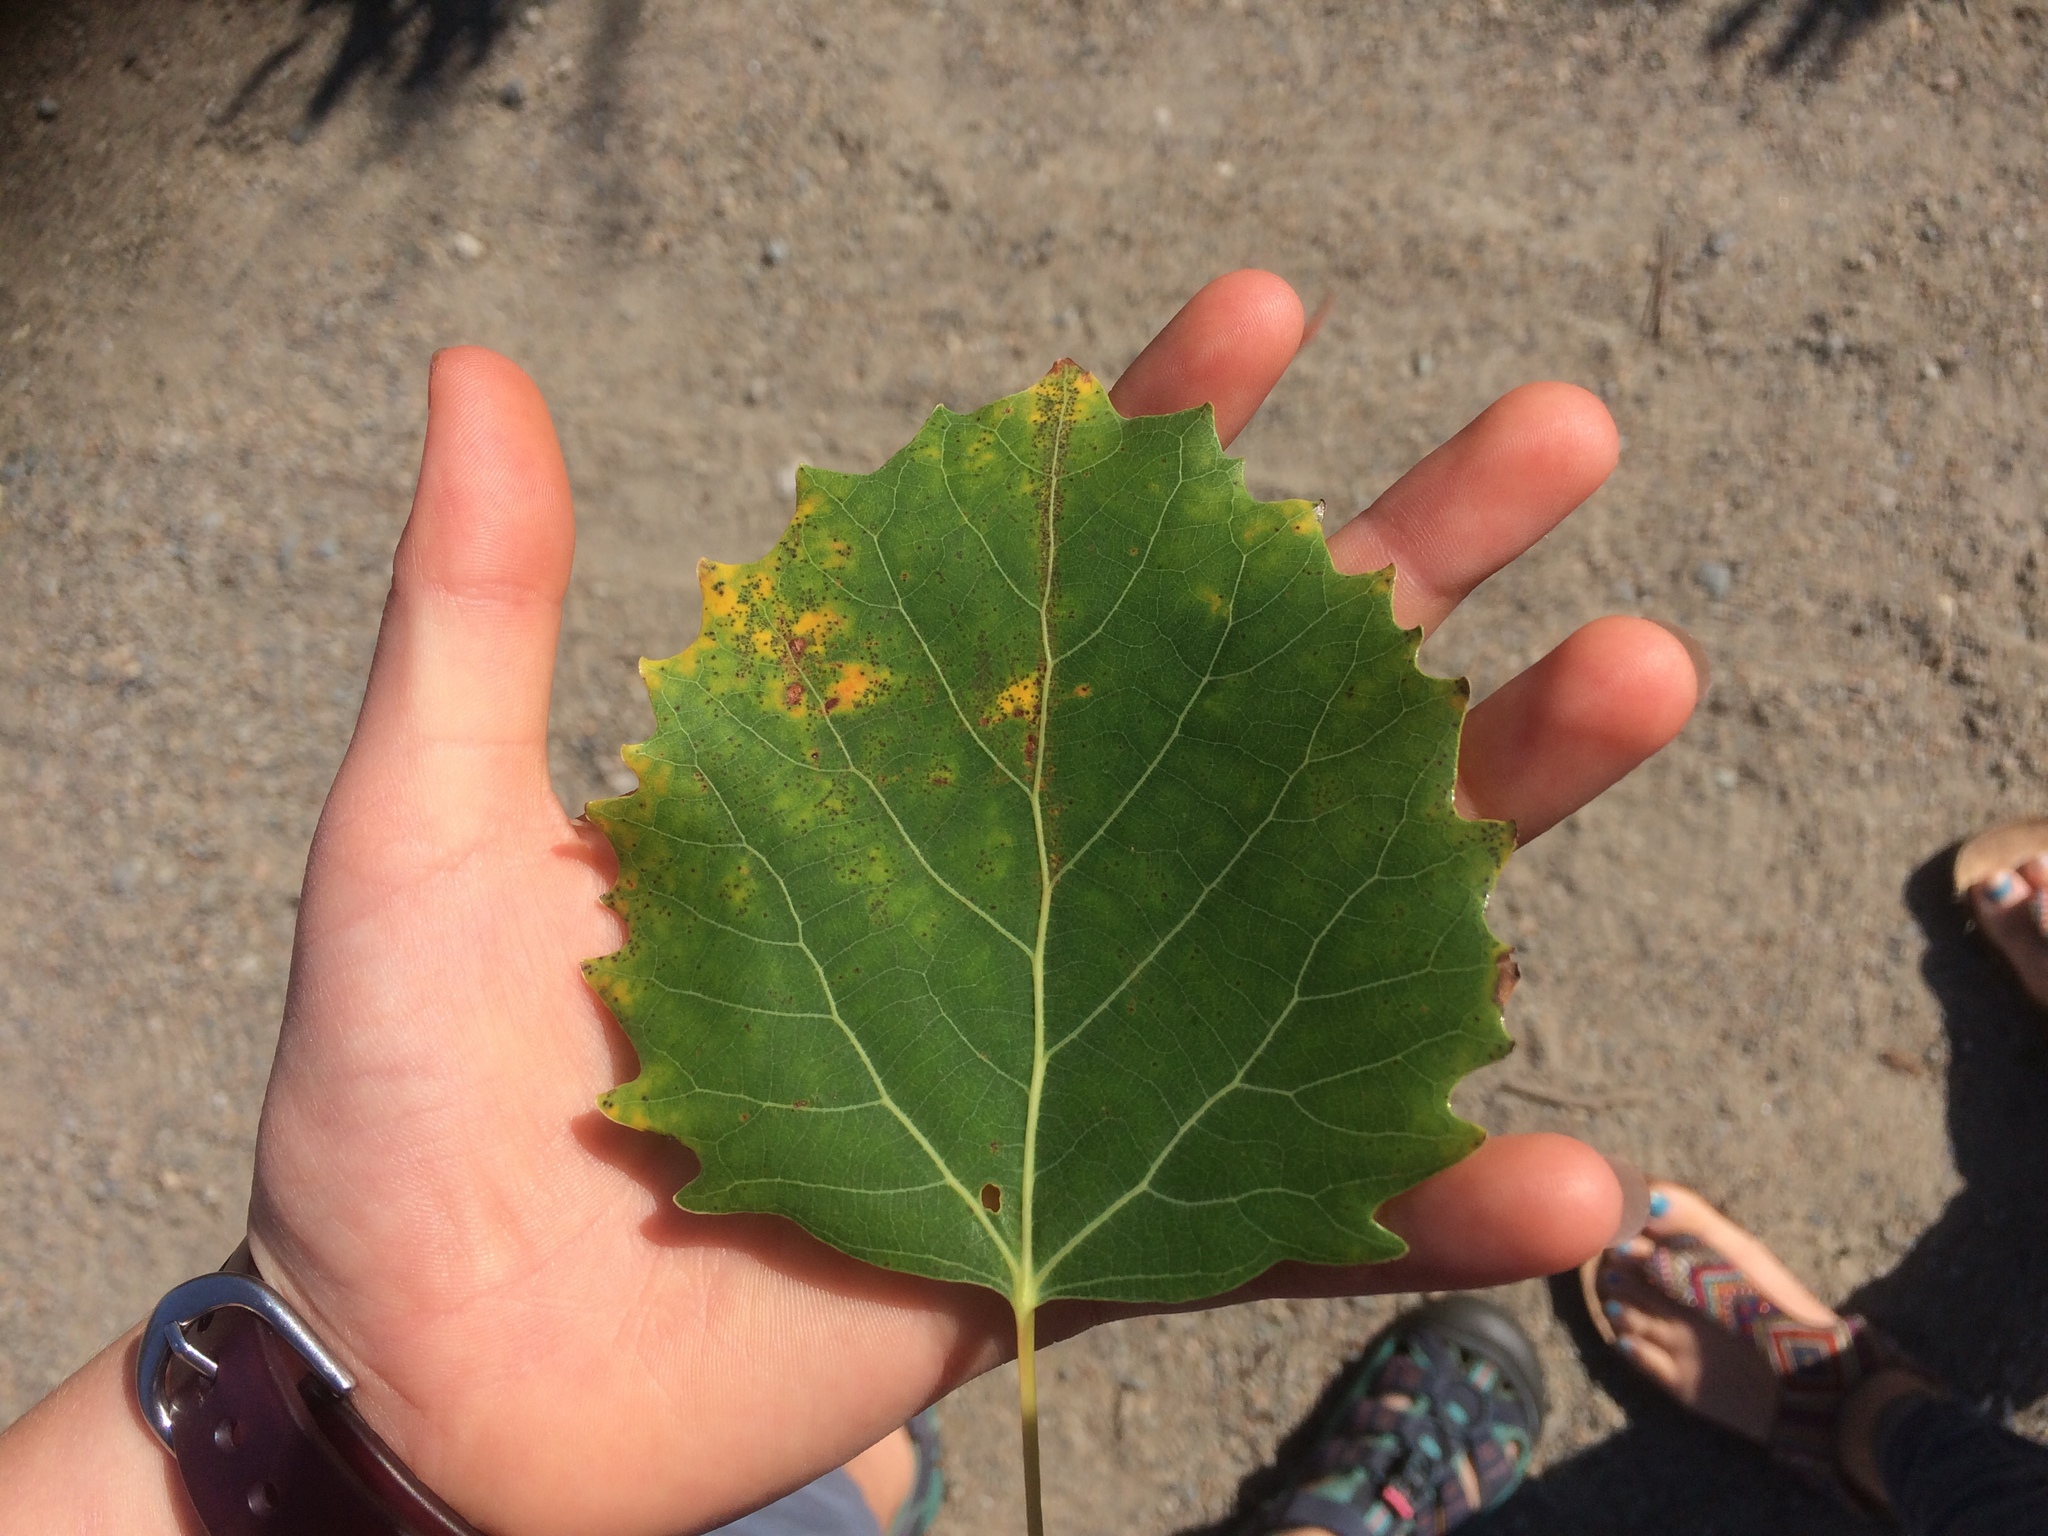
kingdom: Plantae
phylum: Tracheophyta
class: Magnoliopsida
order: Malpighiales
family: Salicaceae
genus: Populus
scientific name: Populus grandidentata
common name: Bigtooth aspen
